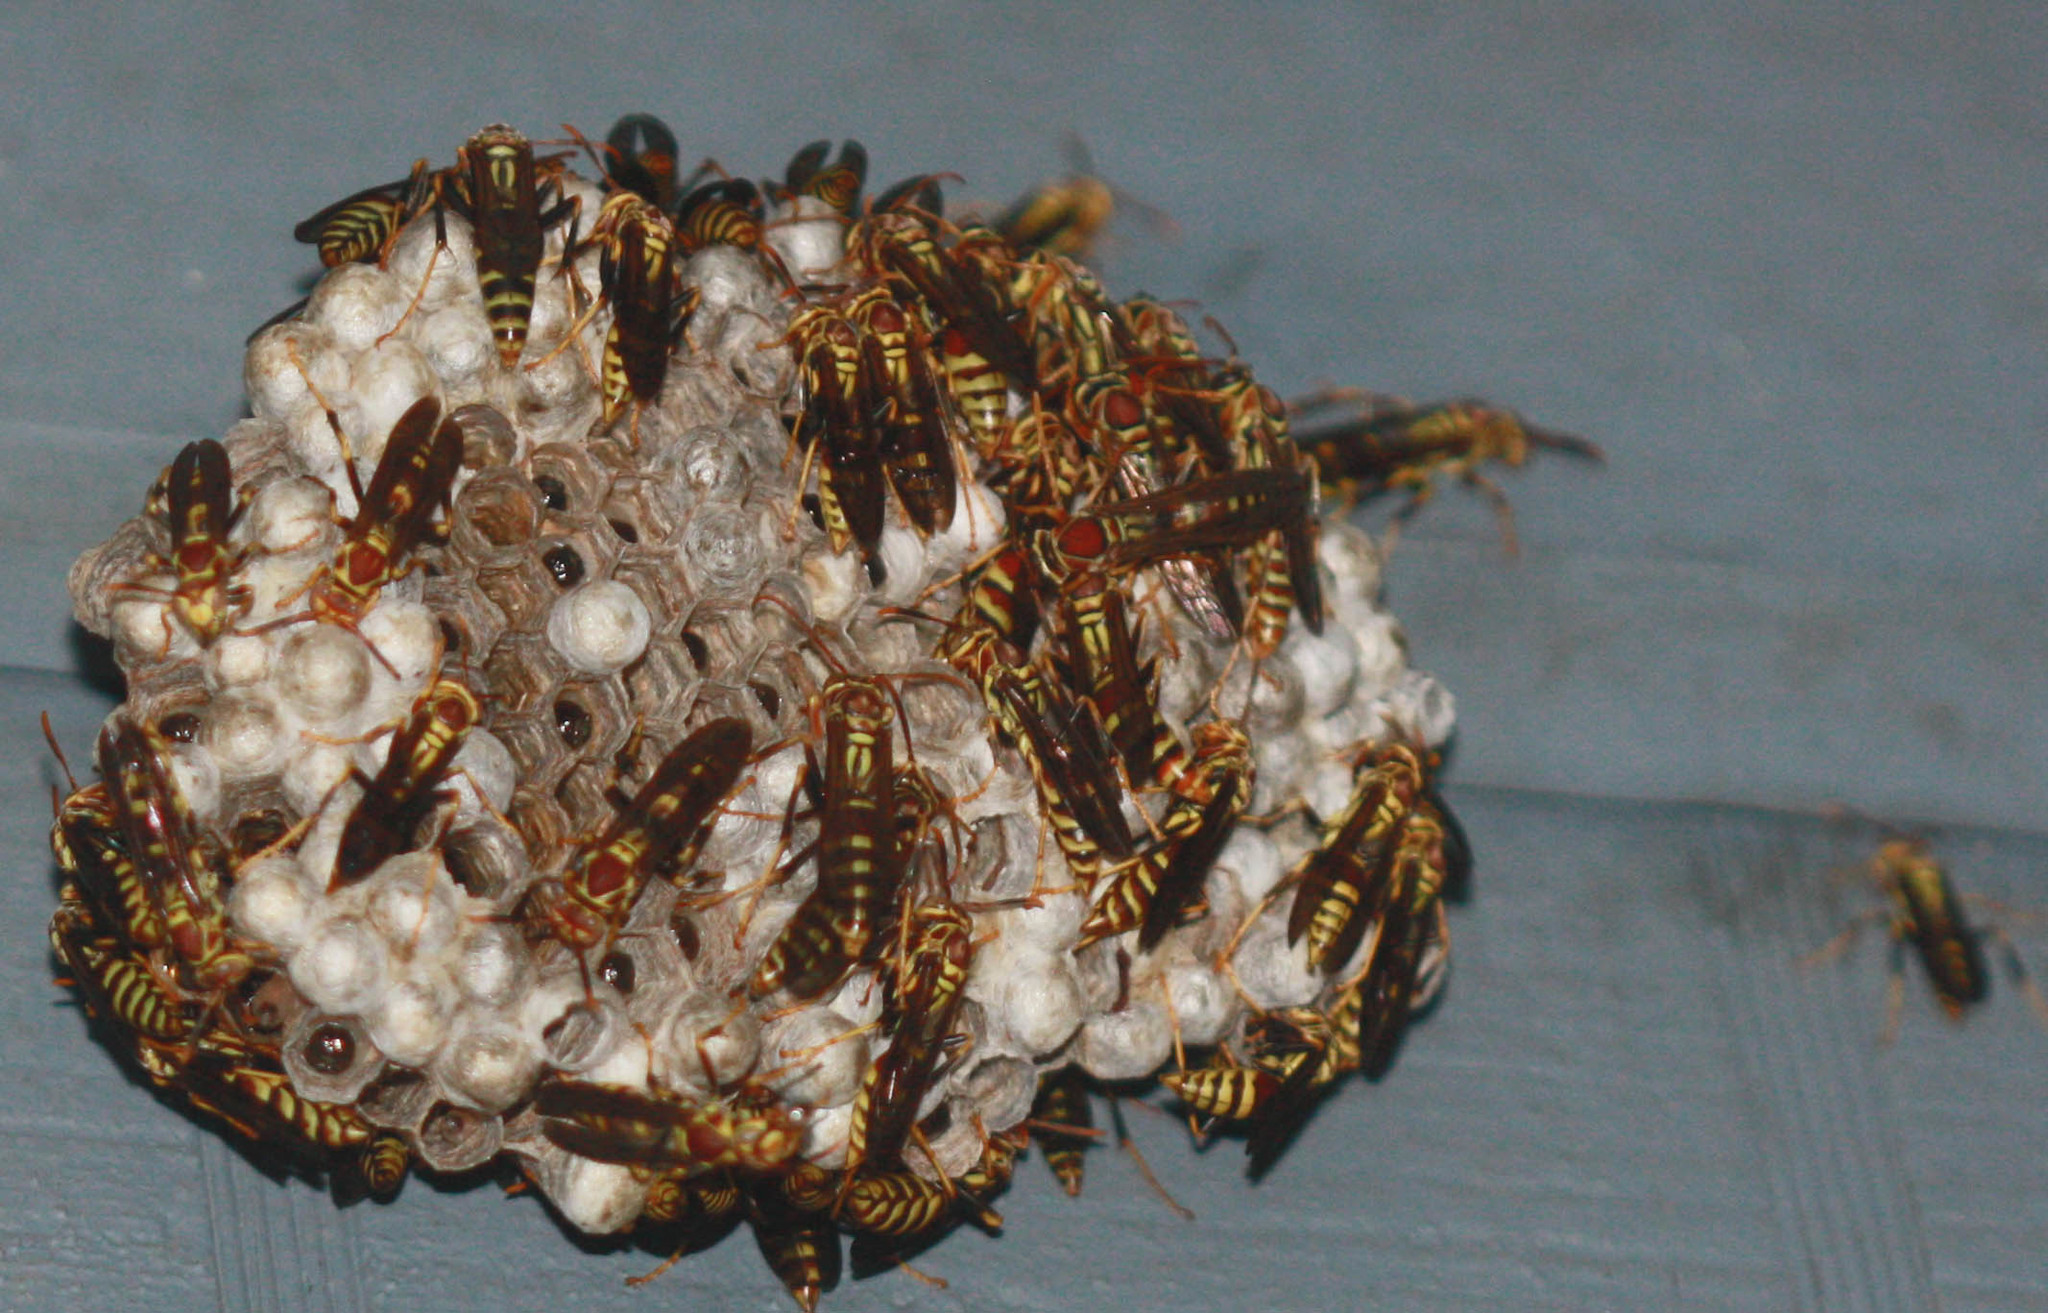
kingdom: Animalia
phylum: Arthropoda
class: Insecta
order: Hymenoptera
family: Eumenidae
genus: Polistes
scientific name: Polistes exclamans
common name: Paper wasp
